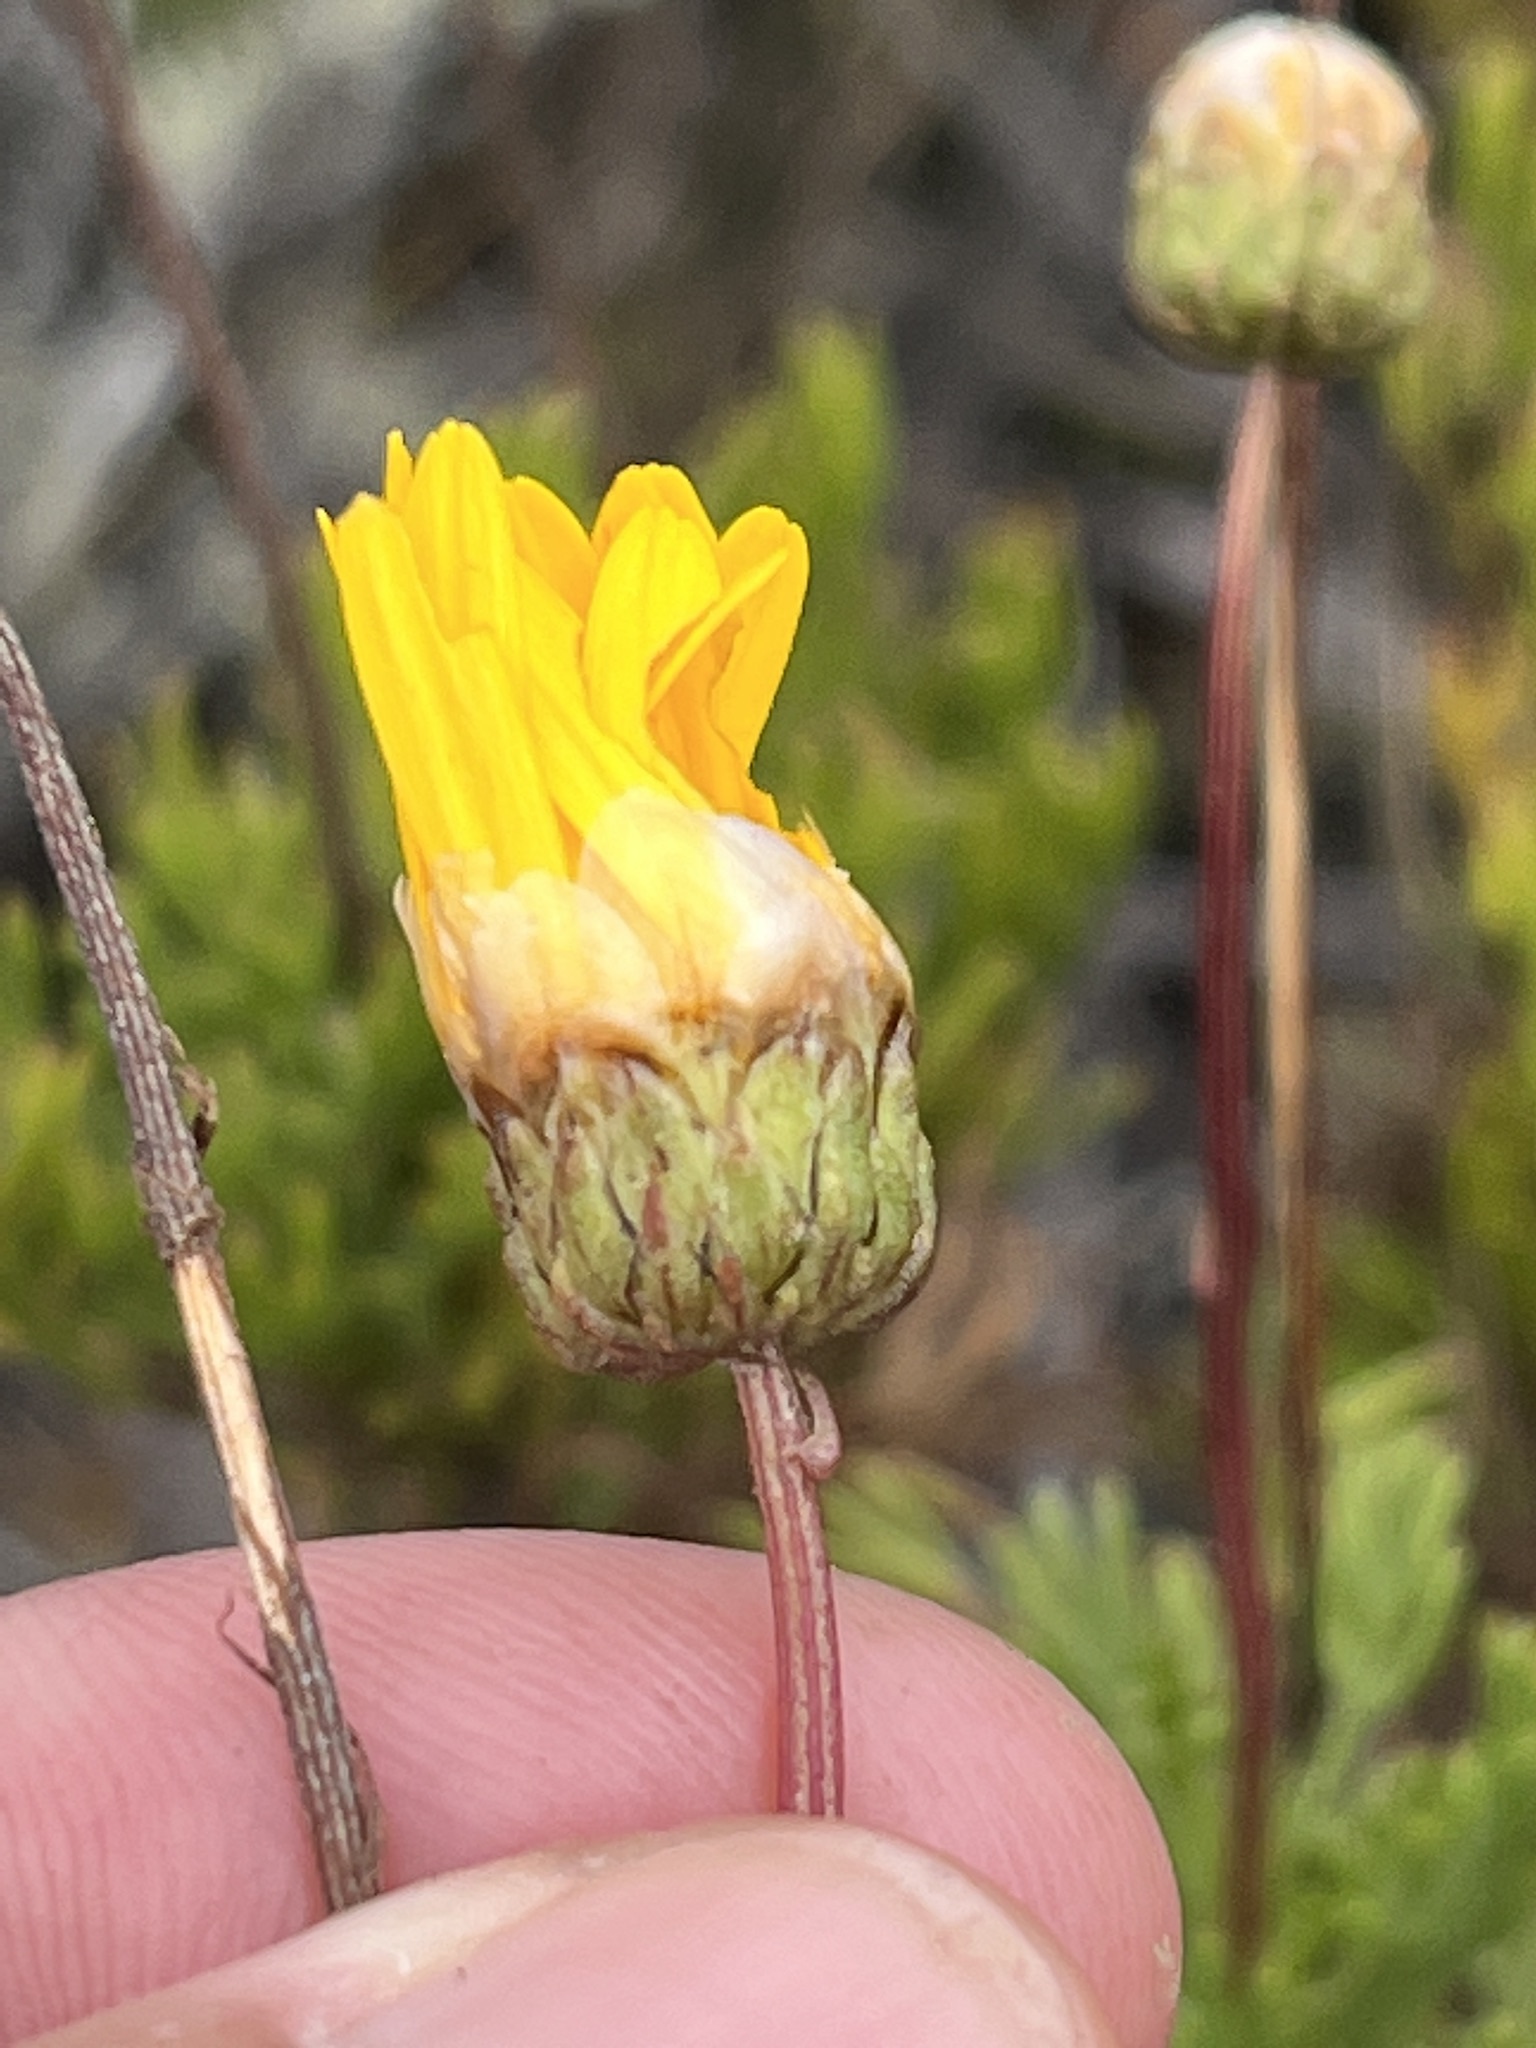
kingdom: Plantae
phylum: Tracheophyta
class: Magnoliopsida
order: Asterales
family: Asteraceae
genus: Euryops
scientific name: Euryops abrotanifolius
